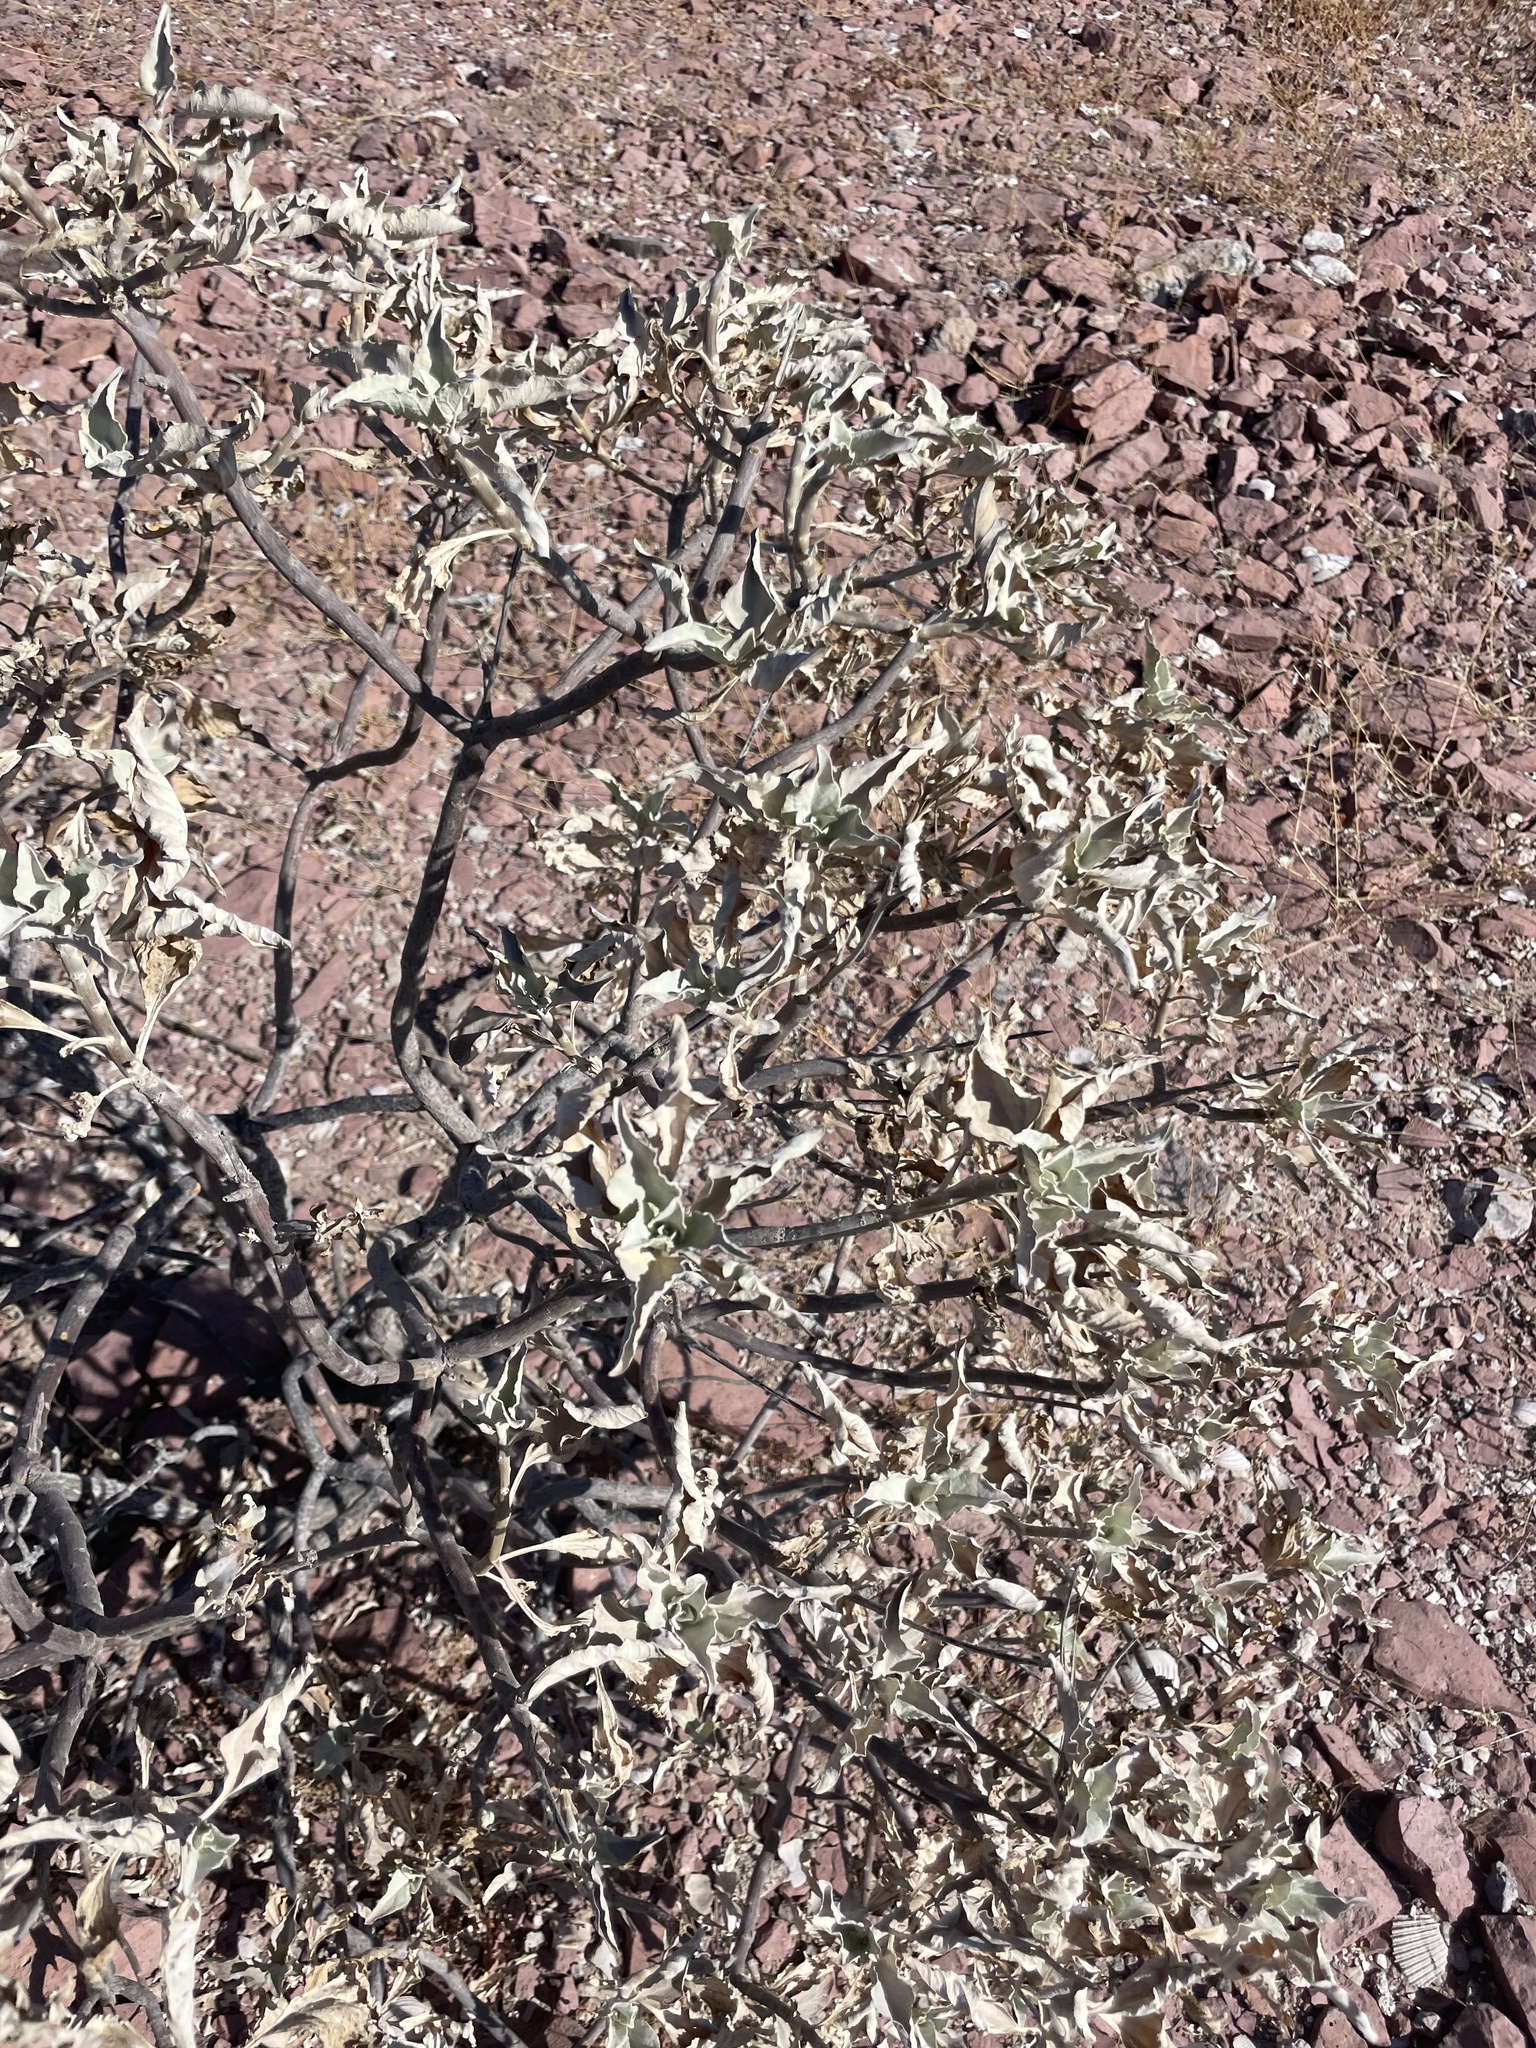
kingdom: Plantae
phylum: Tracheophyta
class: Magnoliopsida
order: Asterales
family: Asteraceae
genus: Encelia
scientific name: Encelia farinosa
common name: Brittlebush
